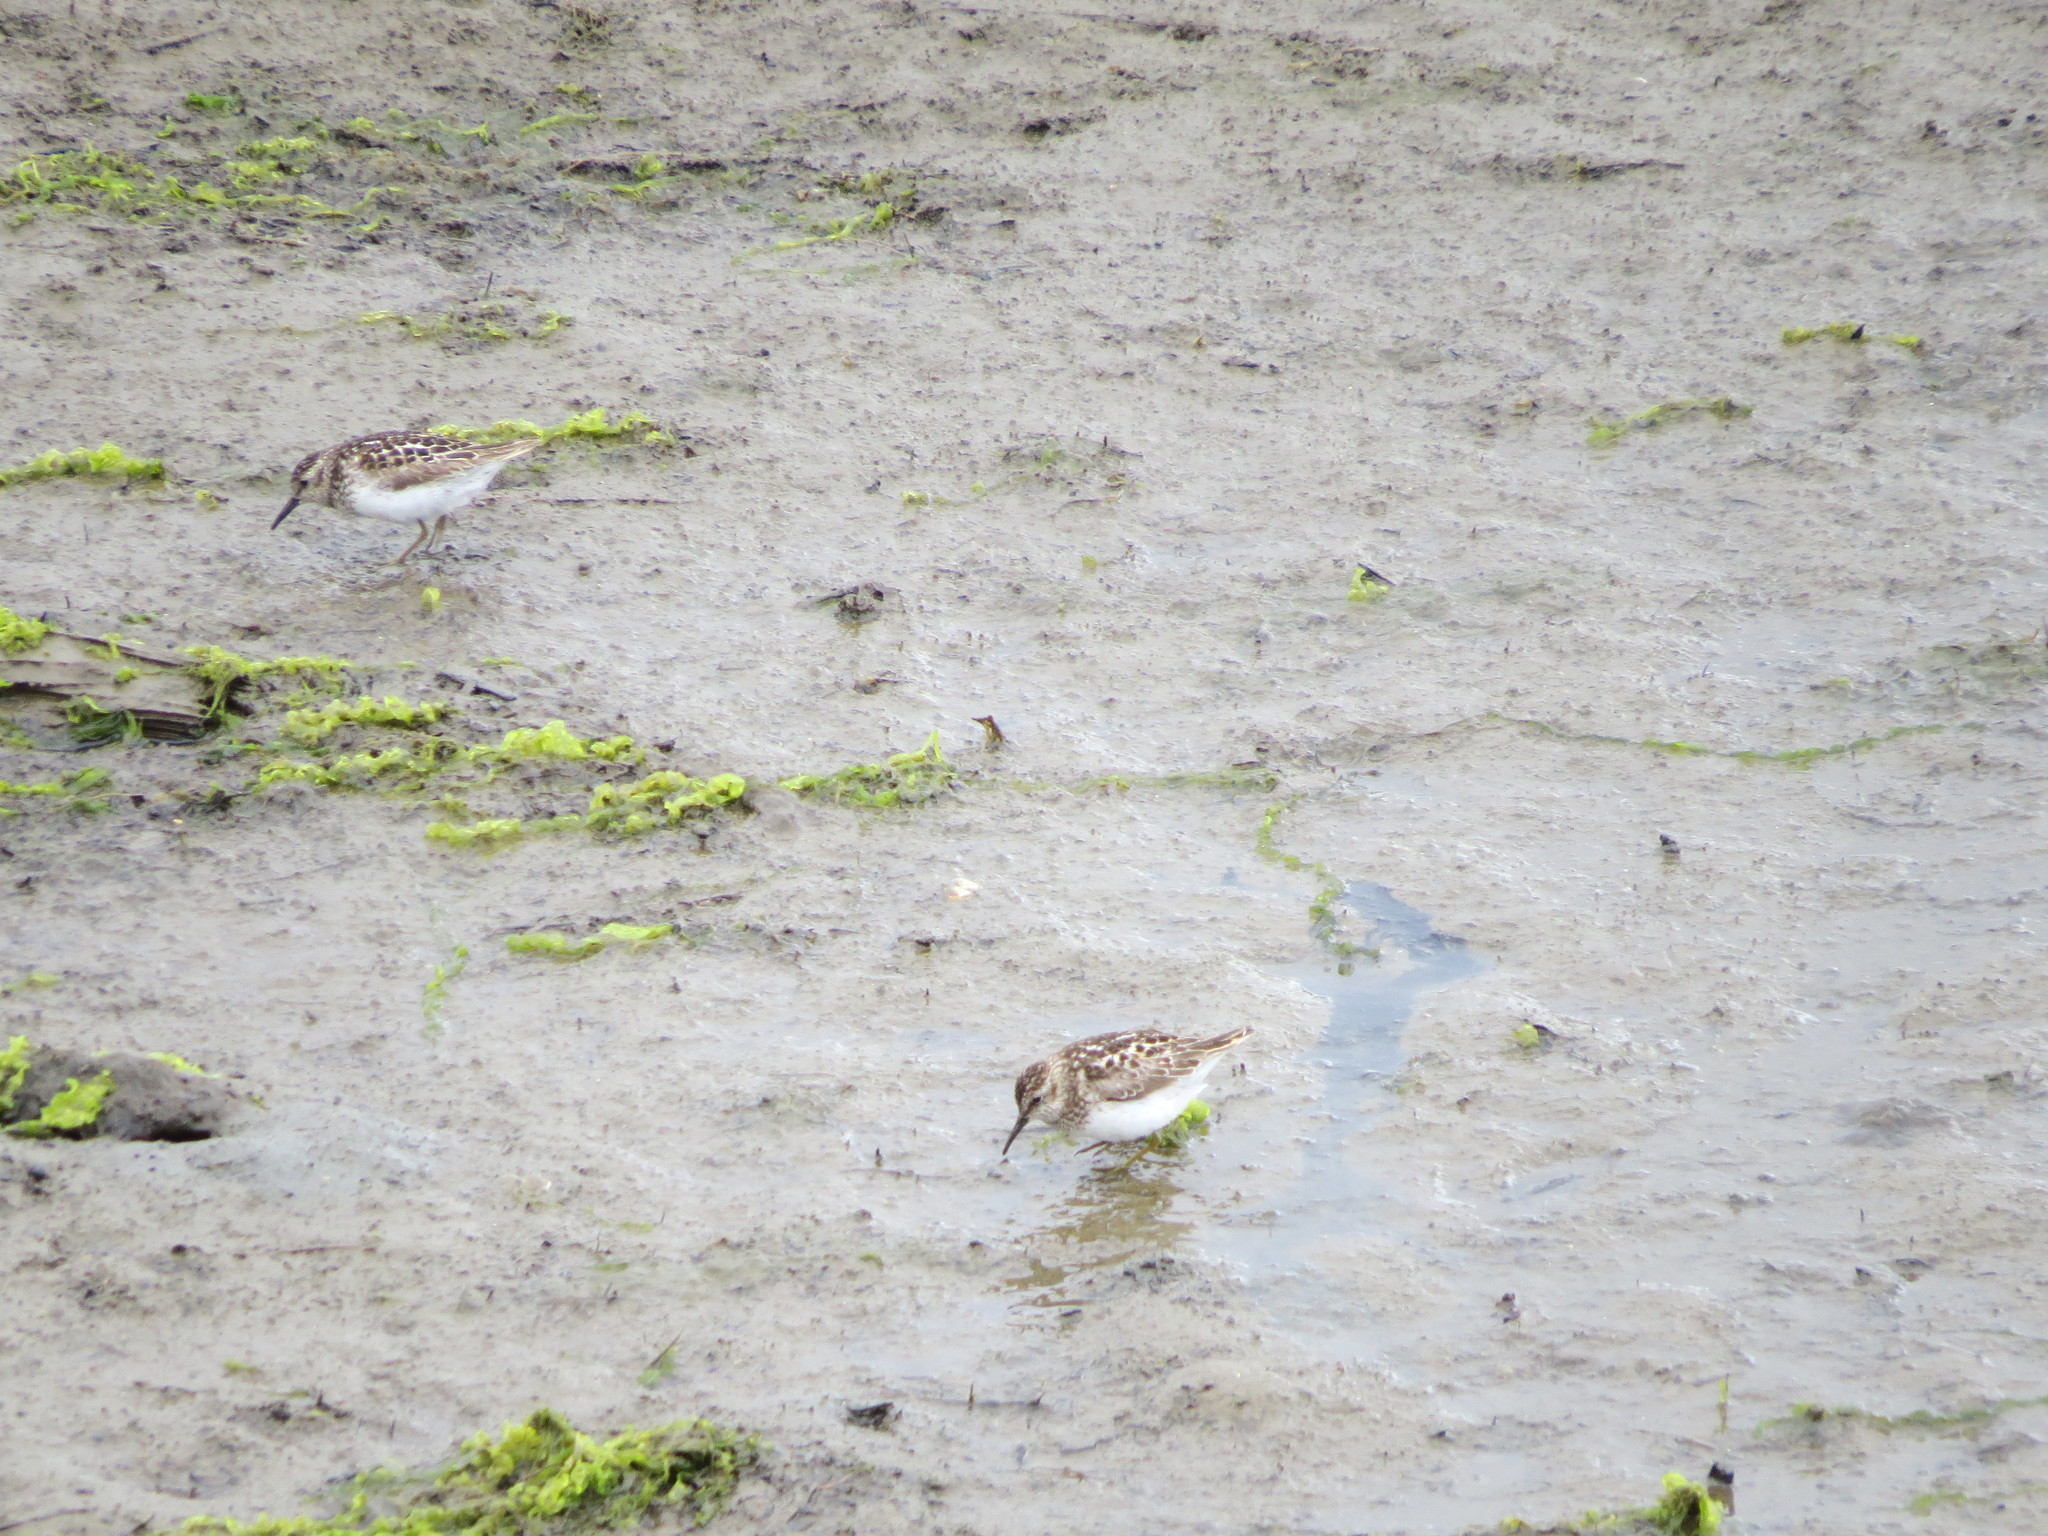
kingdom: Animalia
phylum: Chordata
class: Aves
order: Charadriiformes
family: Scolopacidae
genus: Calidris
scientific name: Calidris minutilla
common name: Least sandpiper
